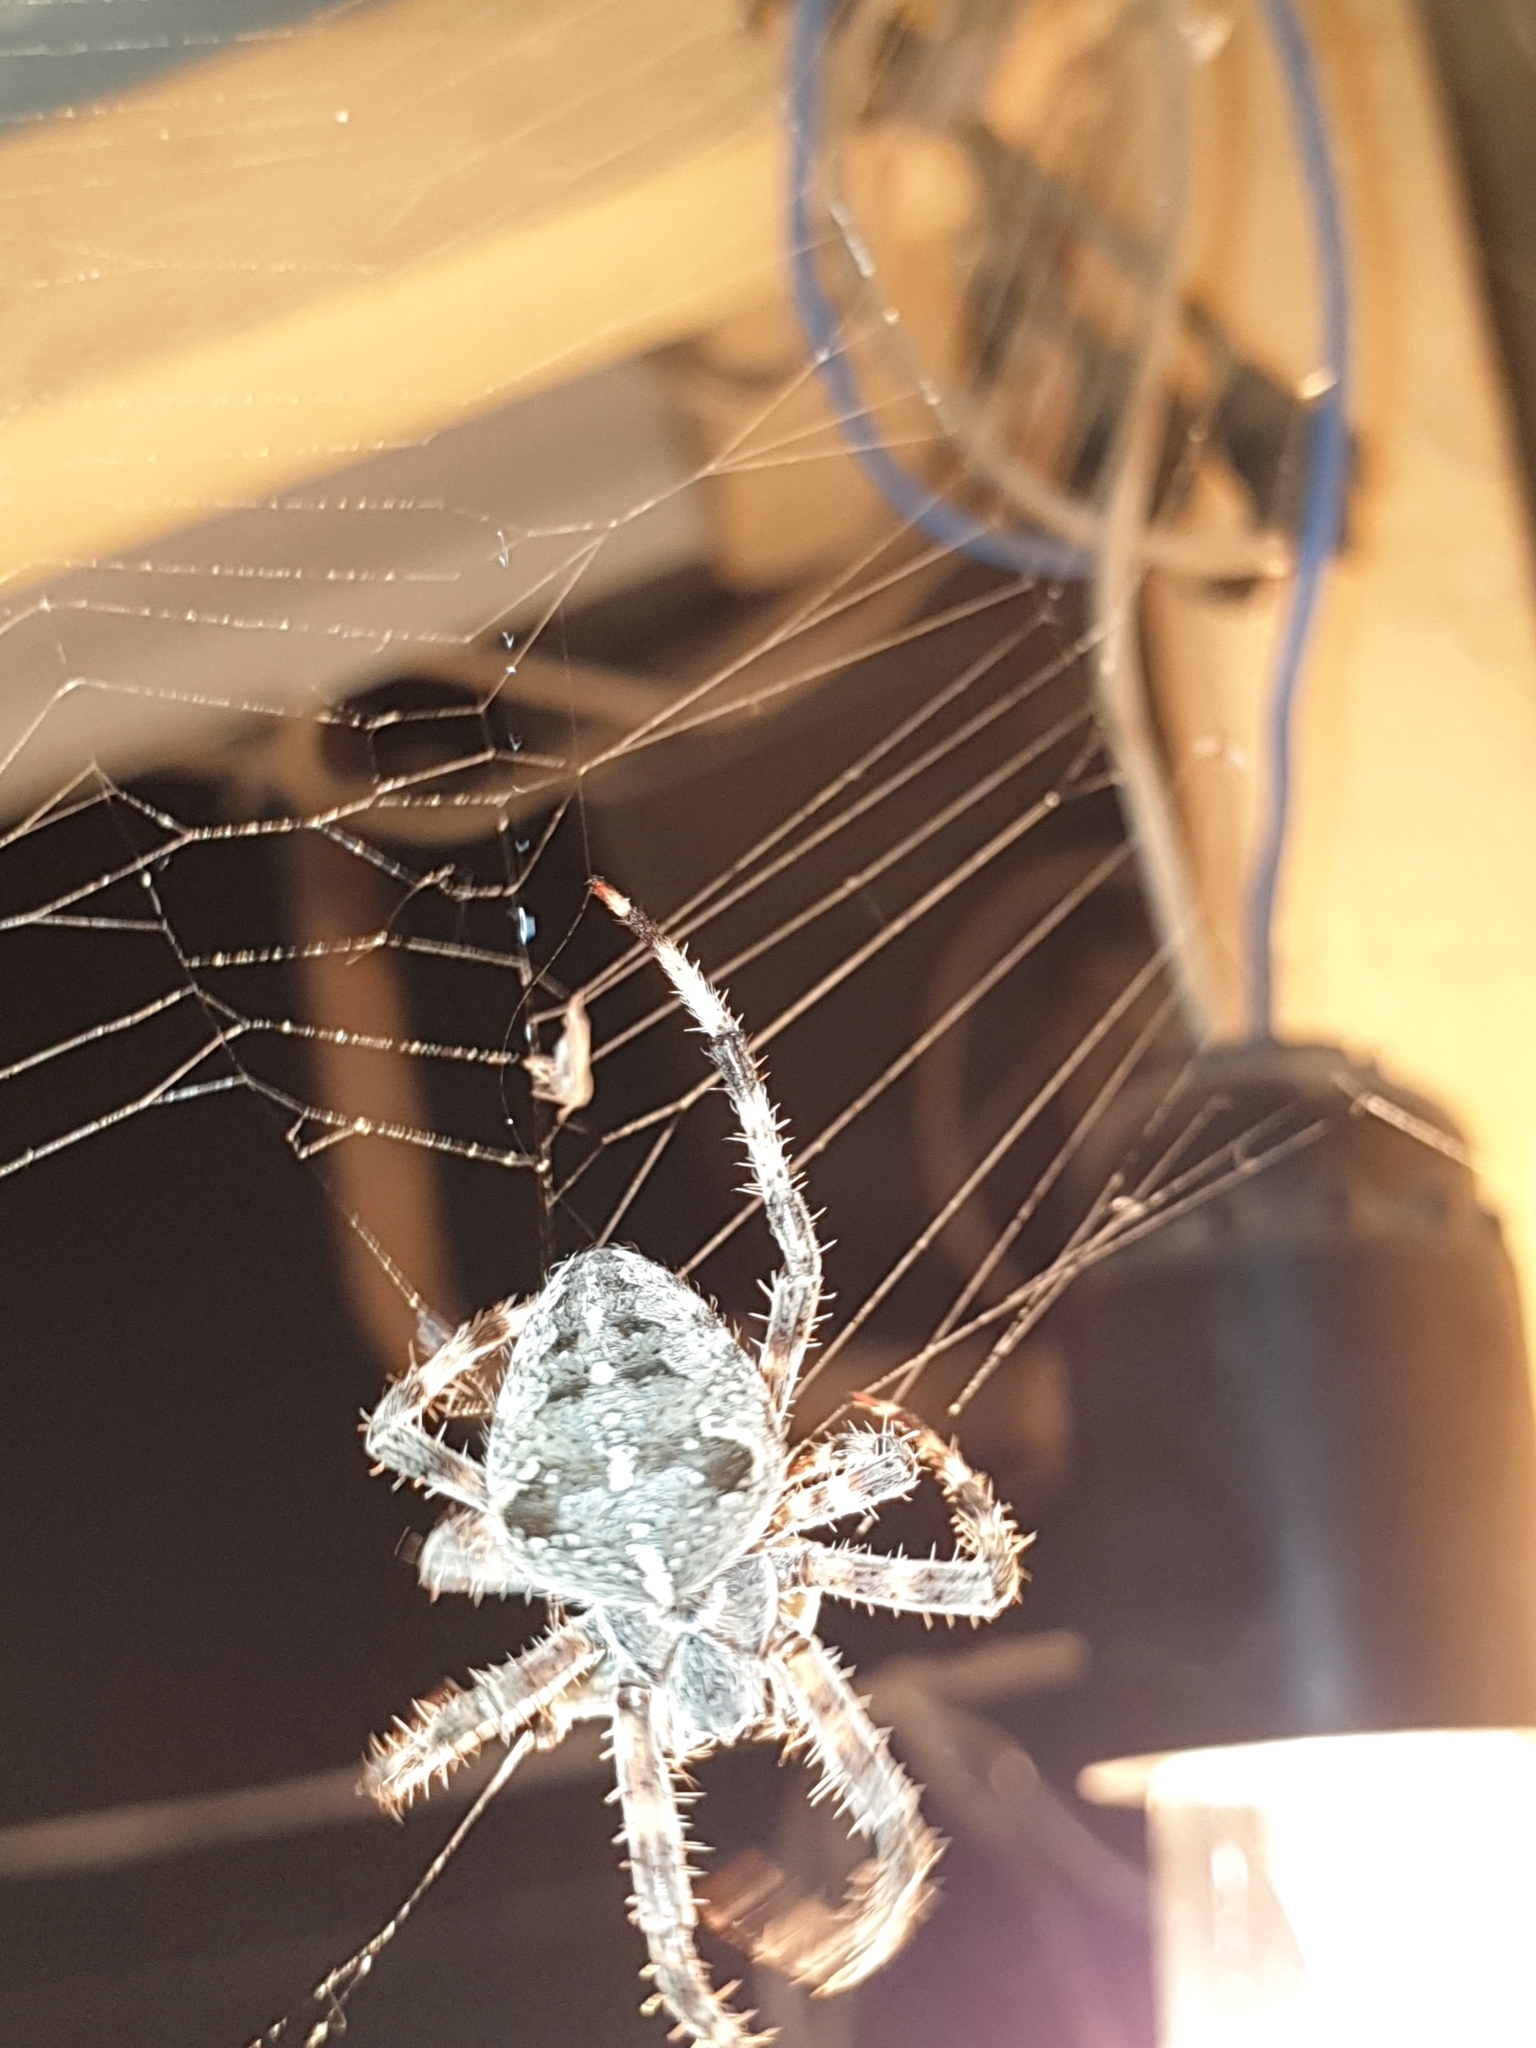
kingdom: Animalia
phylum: Arthropoda
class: Arachnida
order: Araneae
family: Araneidae
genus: Araneus
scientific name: Araneus diadematus
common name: Cross orbweaver
